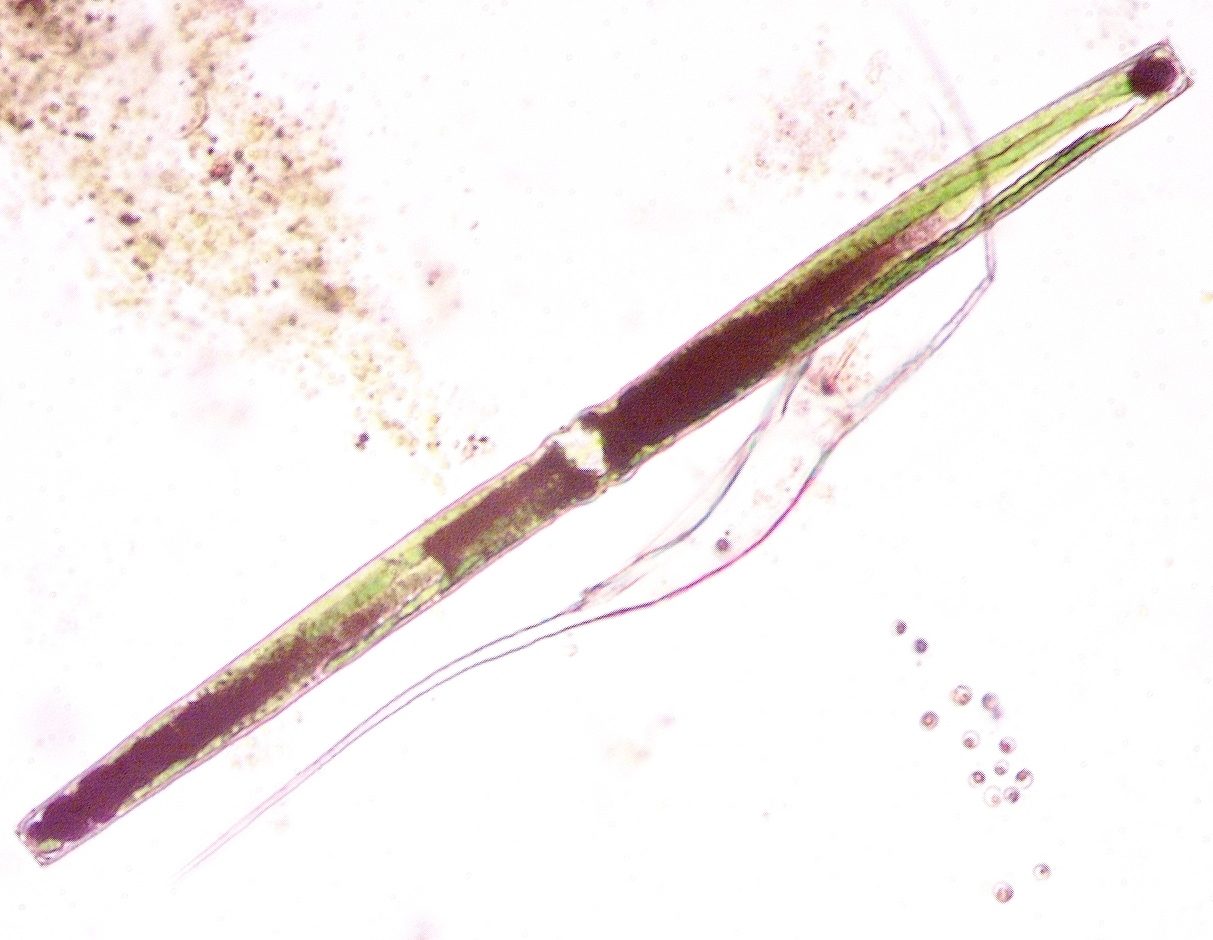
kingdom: Plantae
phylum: Charophyta
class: Conjugatophyceae
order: Desmidiales
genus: Pleurotaenium
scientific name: Pleurotaenium ehrenbergii
